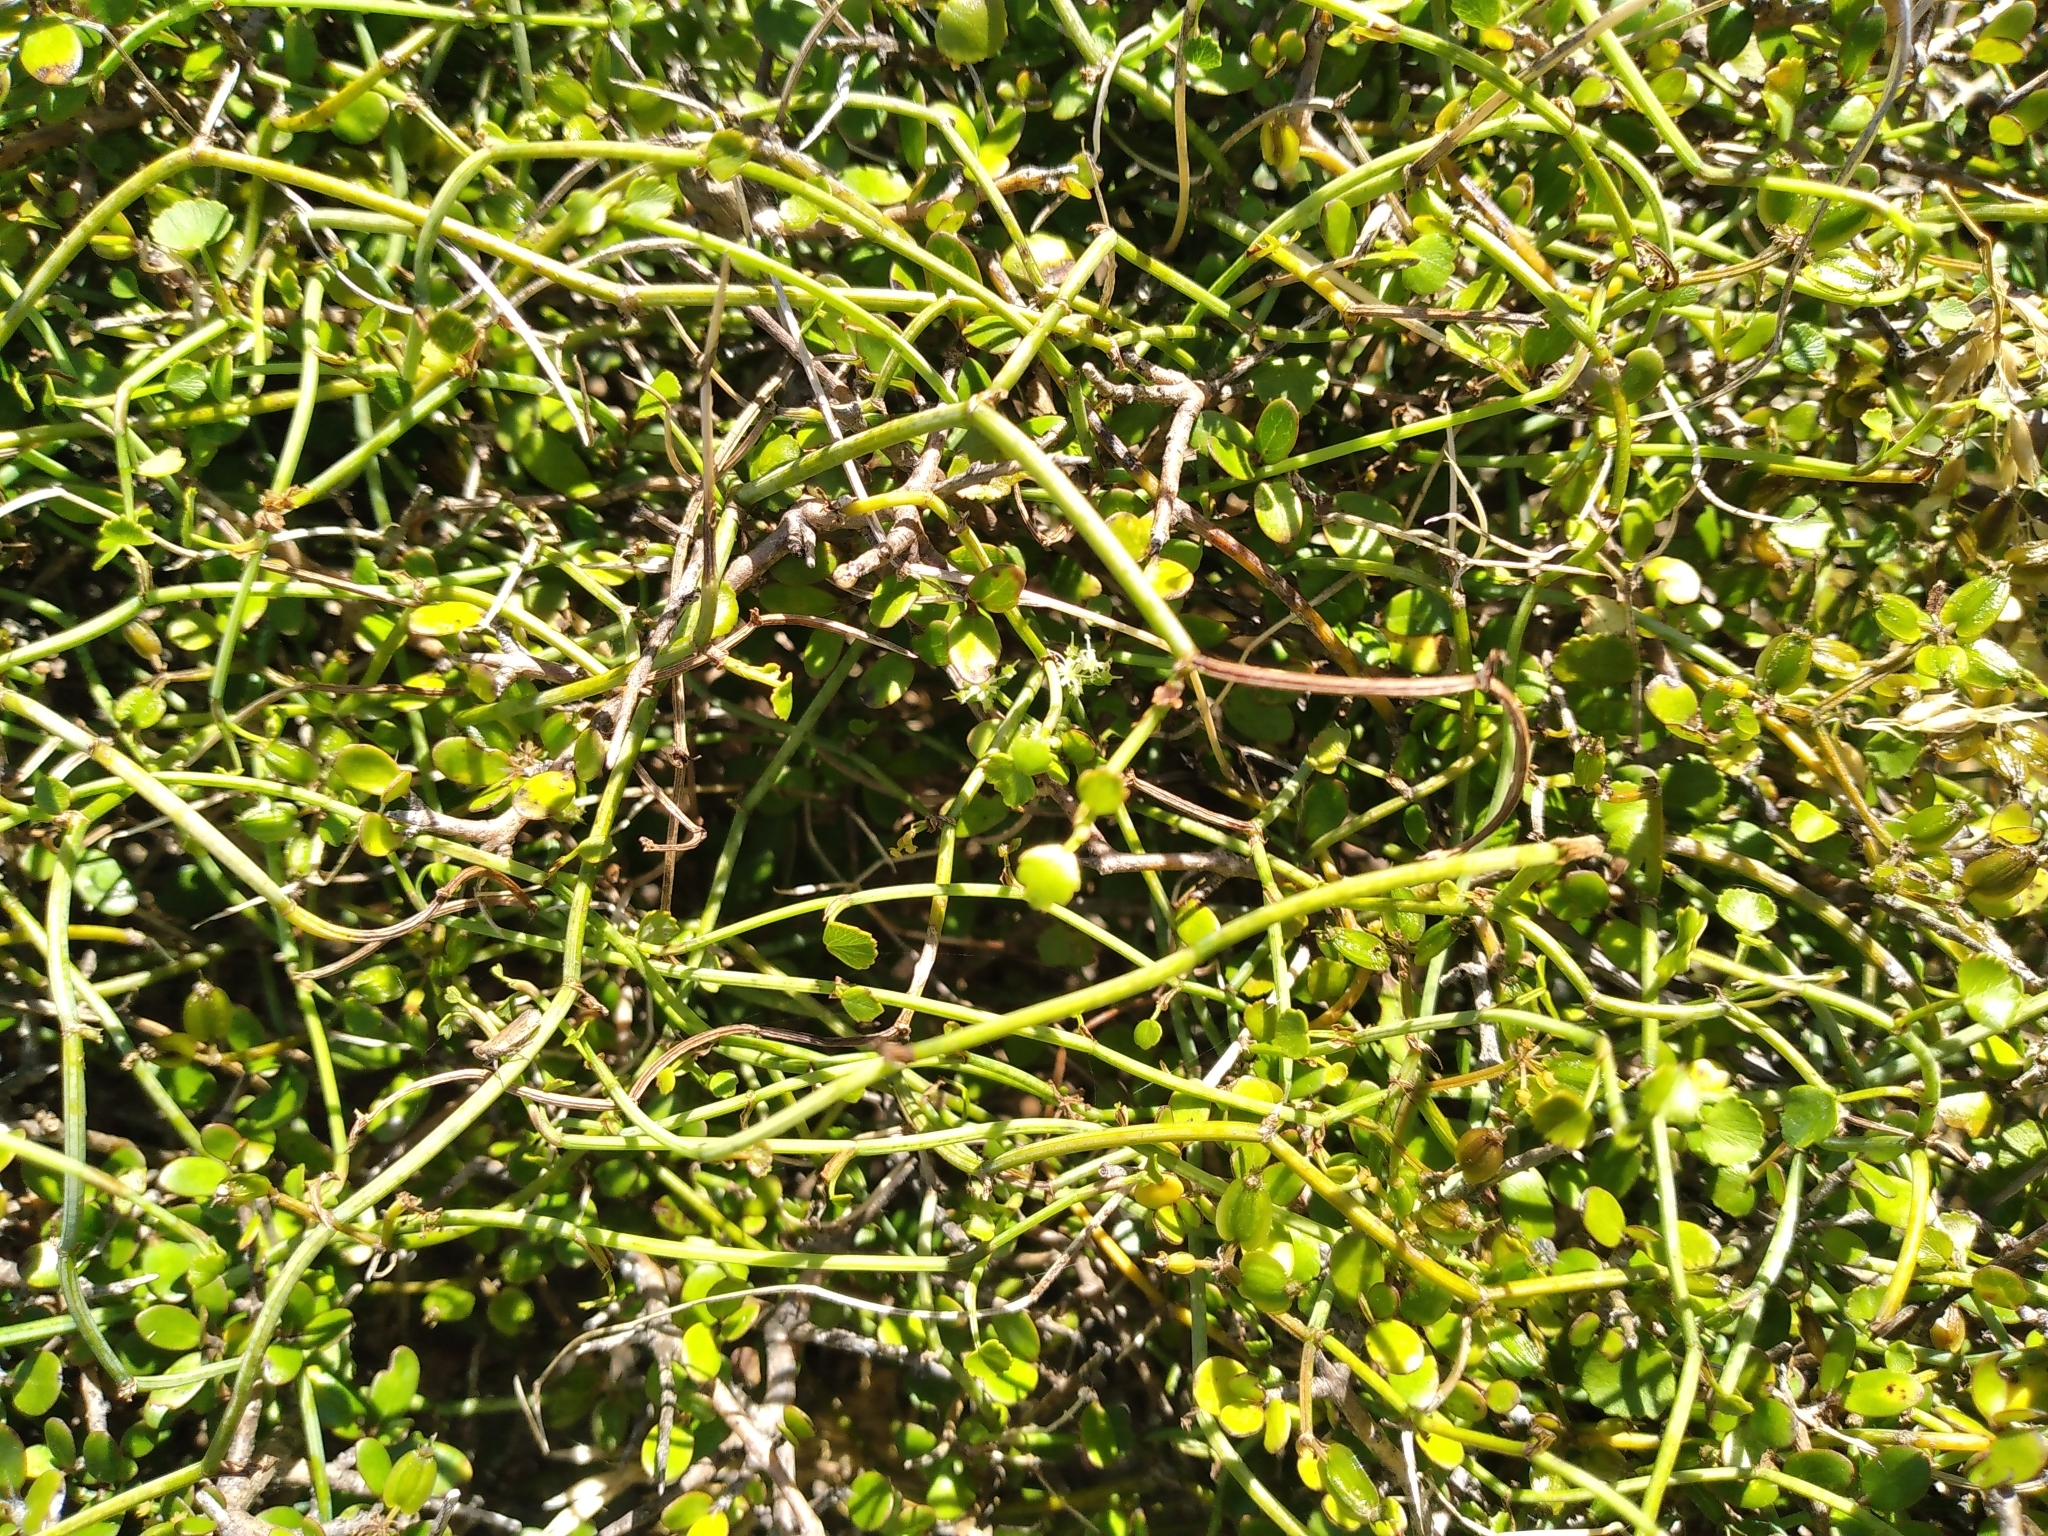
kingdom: Plantae
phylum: Tracheophyta
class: Magnoliopsida
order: Apiales
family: Apiaceae
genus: Scandia
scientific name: Scandia geniculata
